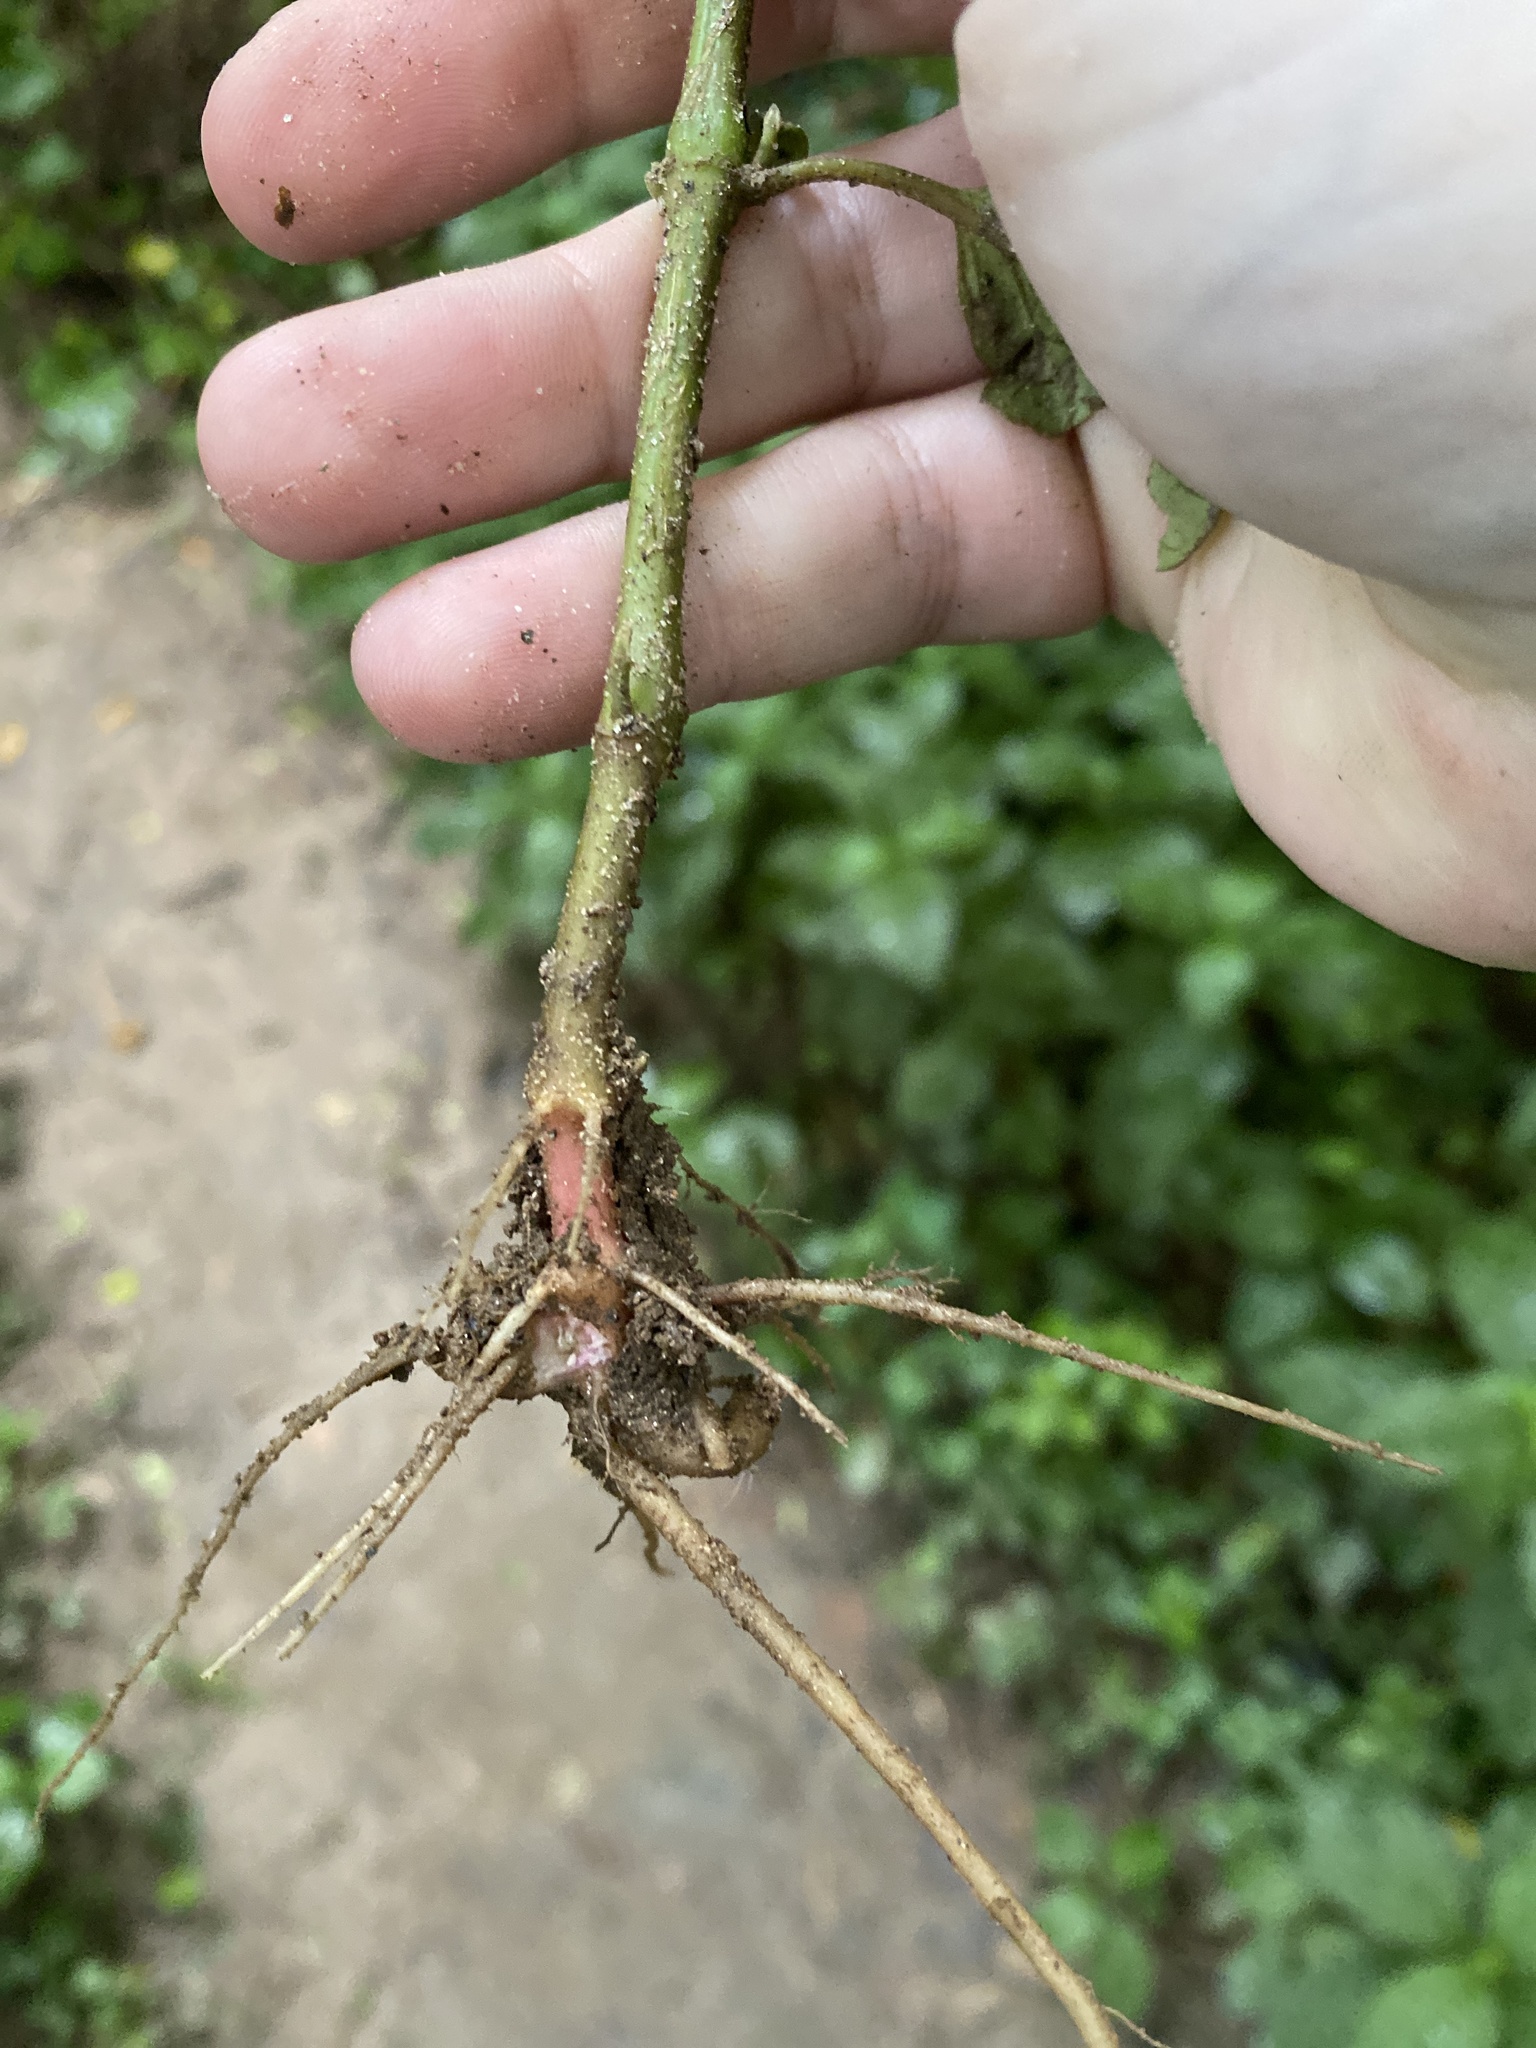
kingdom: Plantae
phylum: Tracheophyta
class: Magnoliopsida
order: Caryophyllales
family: Amaranthaceae
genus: Achyranthes
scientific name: Achyranthes bidentata
